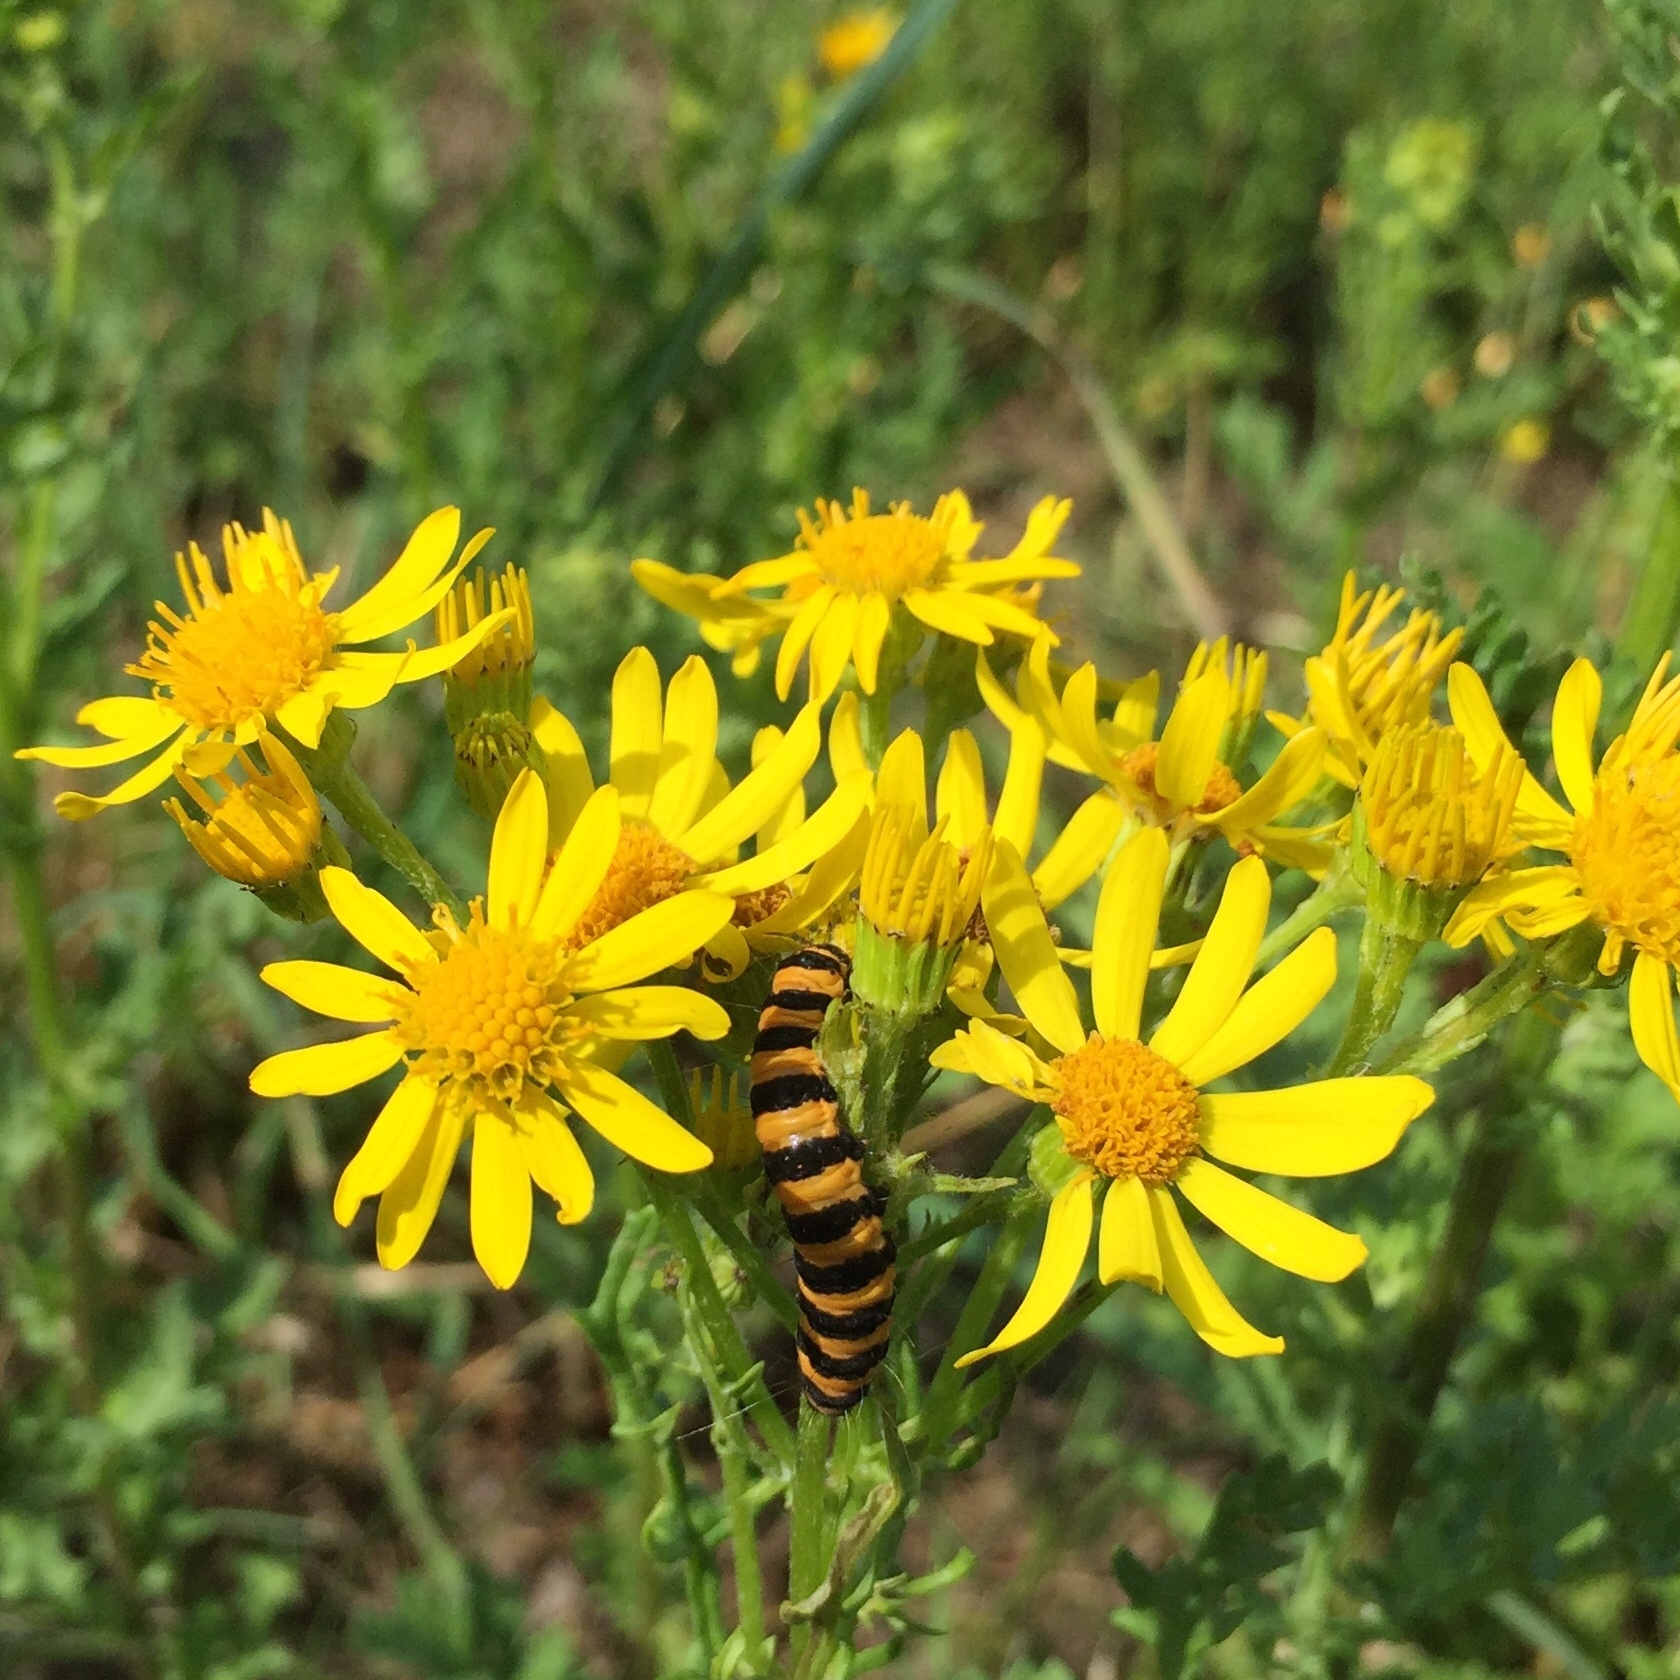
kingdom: Animalia
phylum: Arthropoda
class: Insecta
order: Lepidoptera
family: Erebidae
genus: Tyria
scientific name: Tyria jacobaeae
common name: Cinnabar
